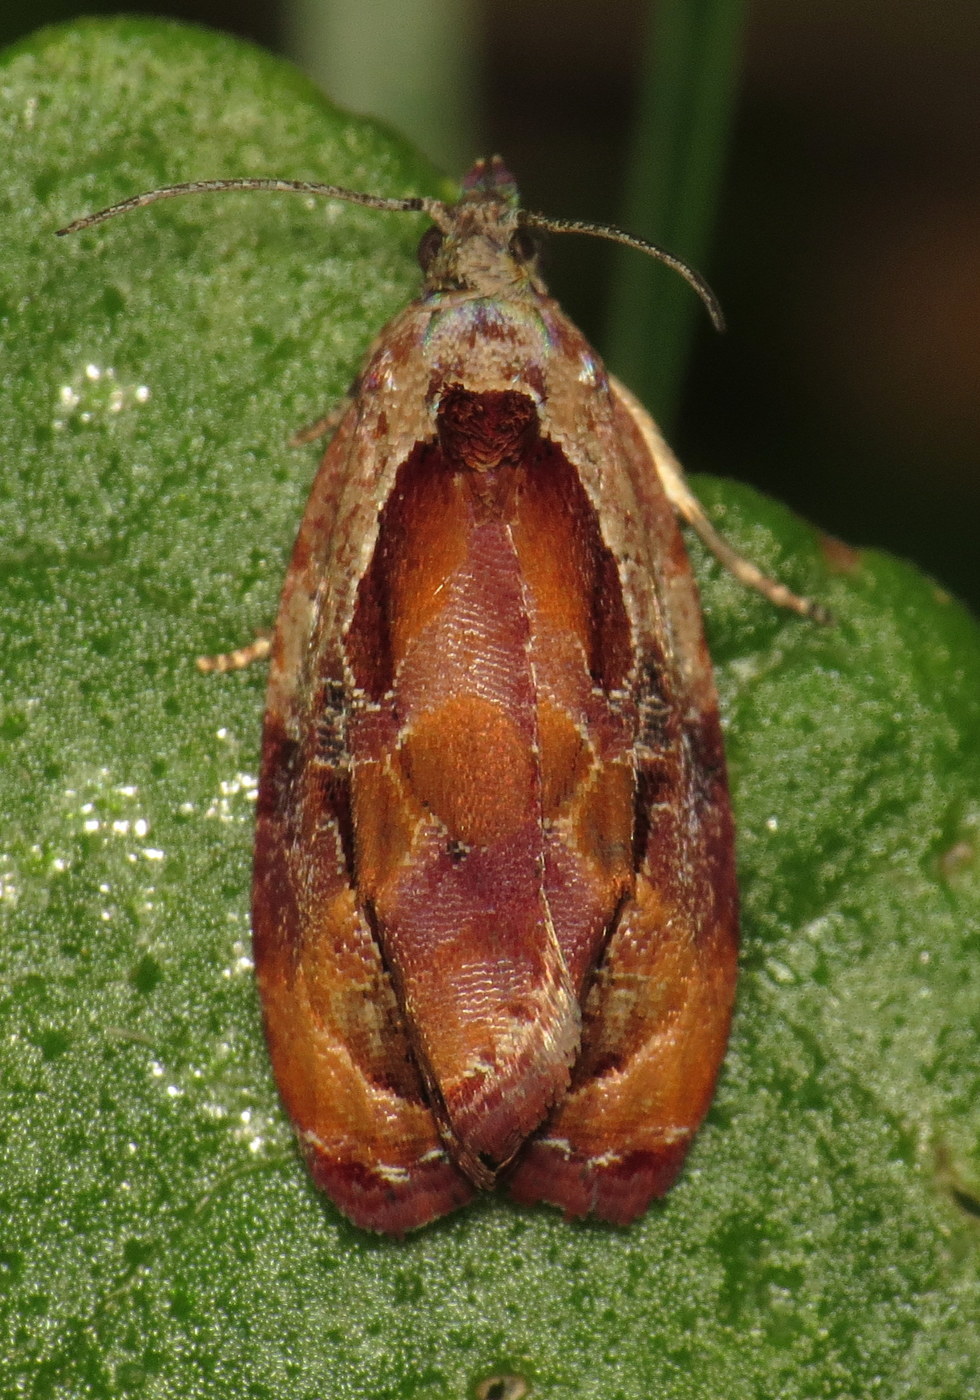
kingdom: Animalia
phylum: Arthropoda
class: Insecta
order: Lepidoptera
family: Tortricidae
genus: Zomaria
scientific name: Zomaria interruptolineana
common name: Broken-lined zomaria moth
